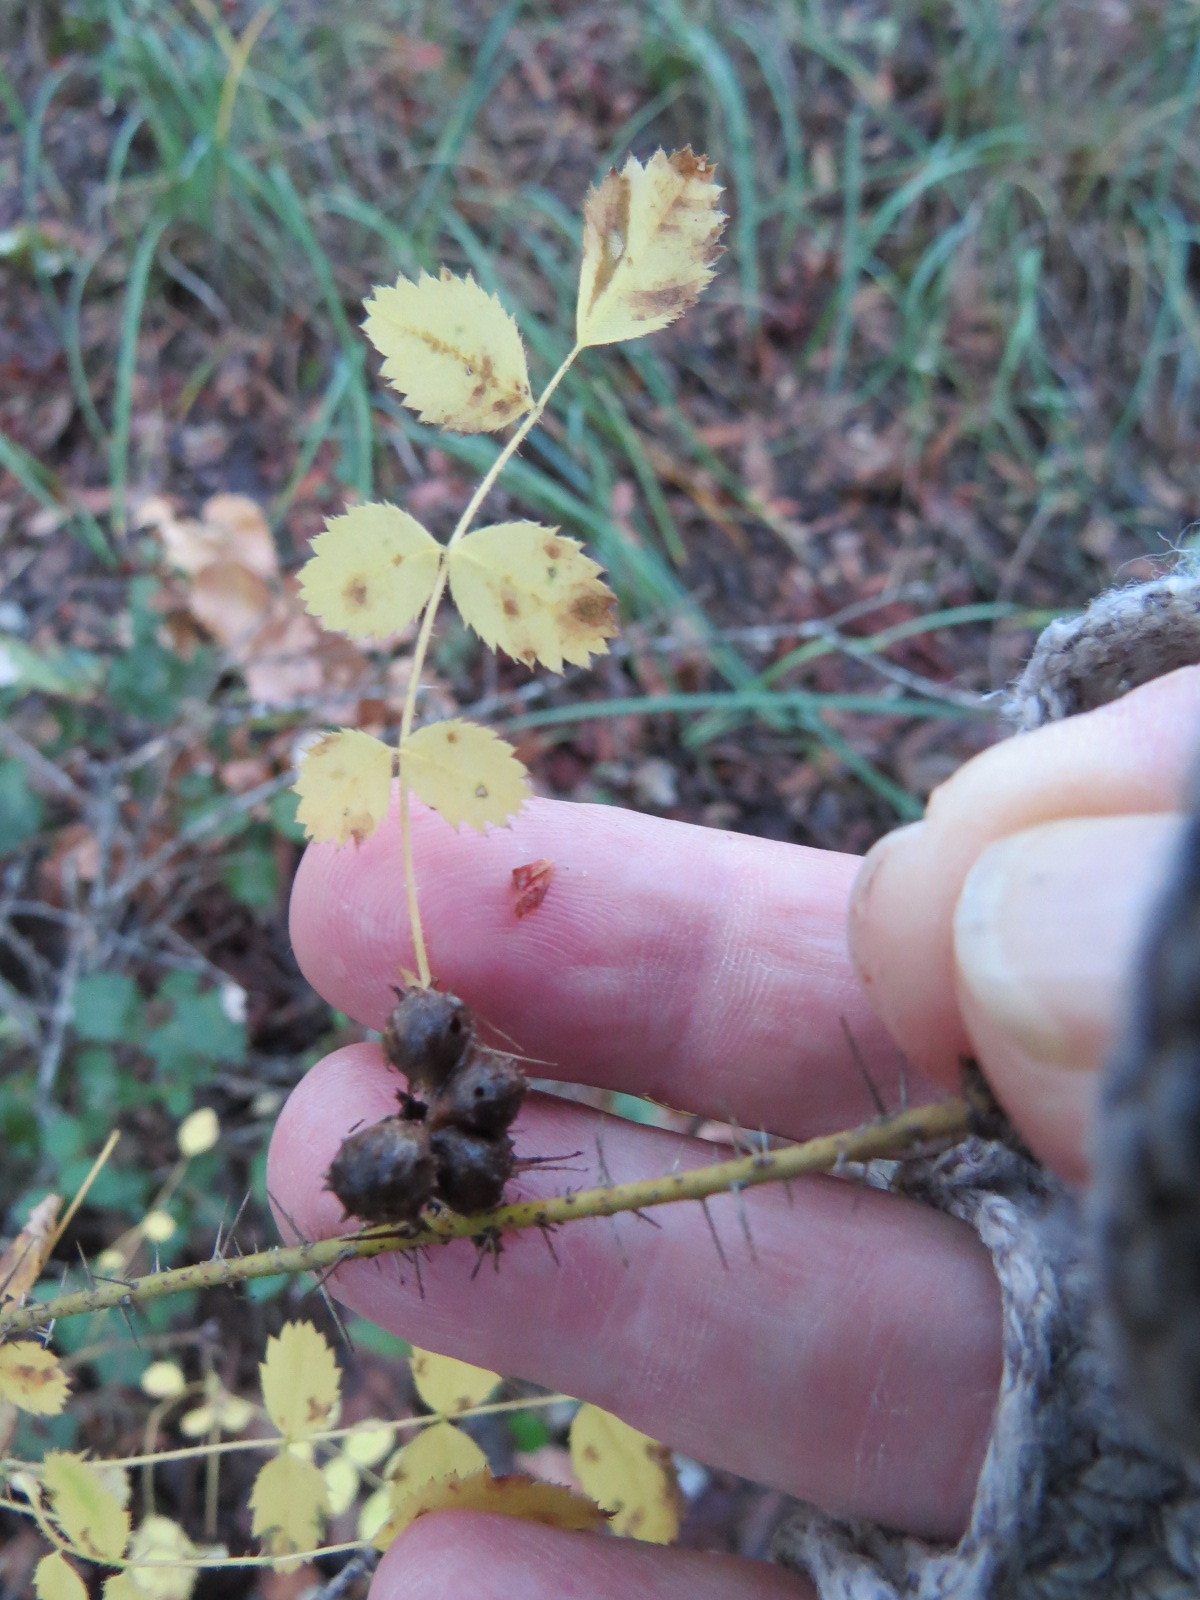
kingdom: Animalia
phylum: Arthropoda
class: Insecta
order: Hymenoptera
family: Cynipidae
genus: Diplolepis
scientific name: Diplolepis bicolor
